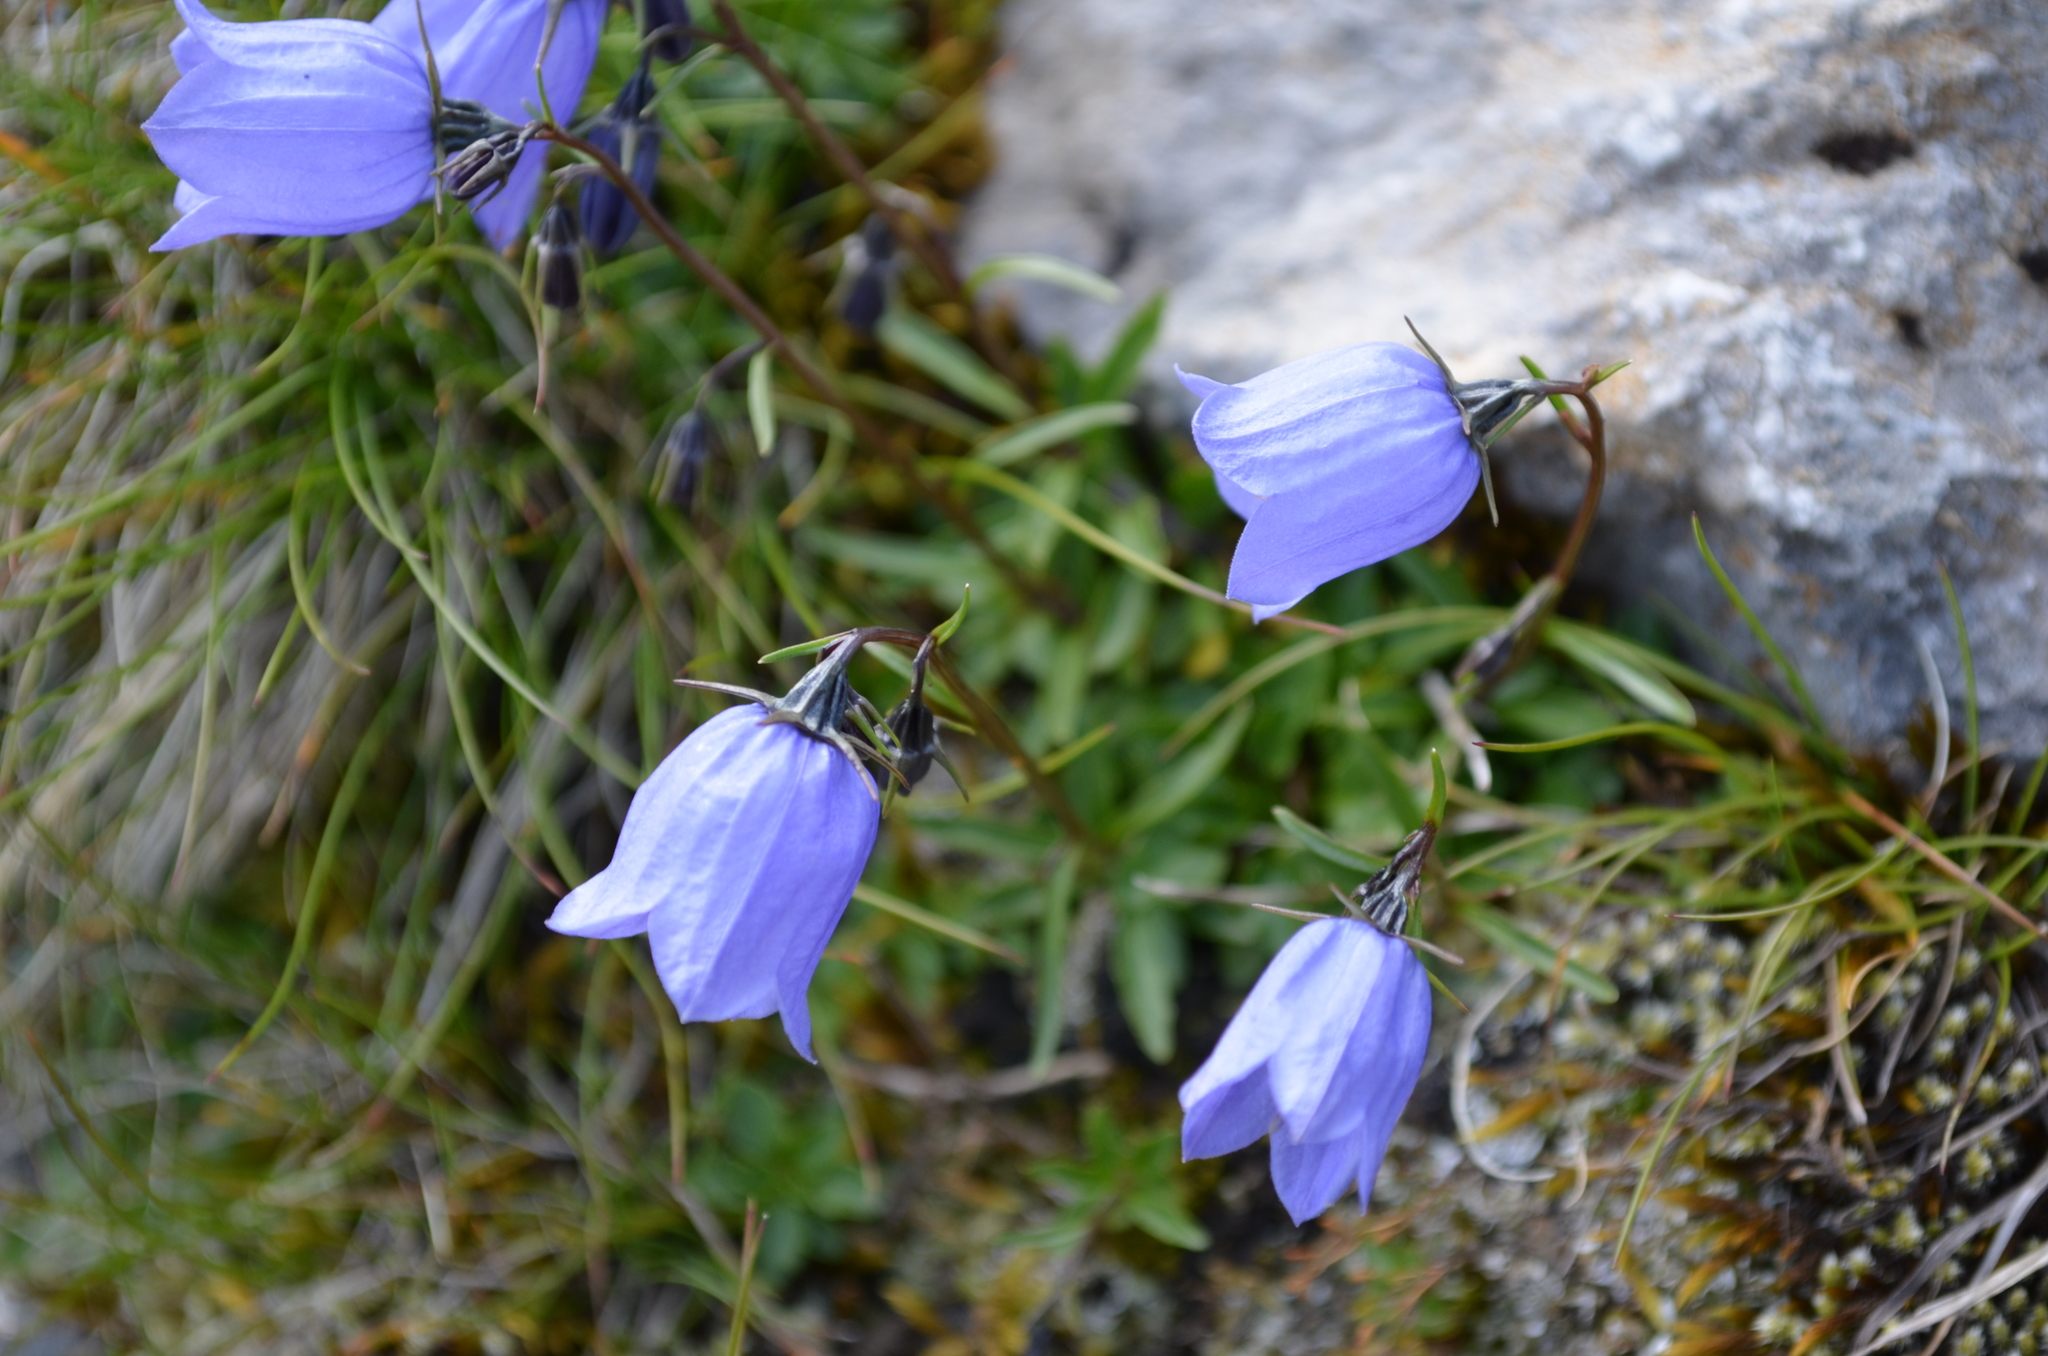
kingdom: Plantae
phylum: Tracheophyta
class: Magnoliopsida
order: Asterales
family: Campanulaceae
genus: Campanula
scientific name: Campanula cochleariifolia
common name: Fairies'-thimbles
